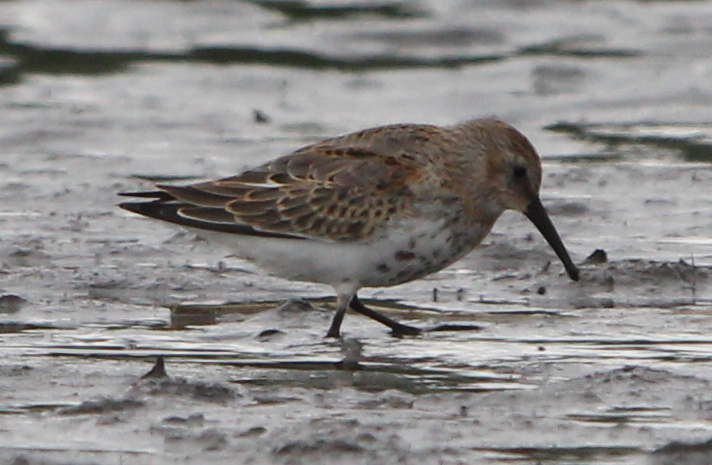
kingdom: Animalia
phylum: Chordata
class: Aves
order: Charadriiformes
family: Scolopacidae
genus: Calidris
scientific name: Calidris alpina
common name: Dunlin
